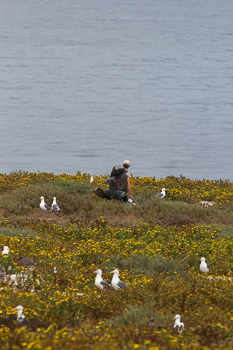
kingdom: Animalia
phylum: Chordata
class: Aves
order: Charadriiformes
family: Laridae
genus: Larus
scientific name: Larus occidentalis
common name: Western gull
